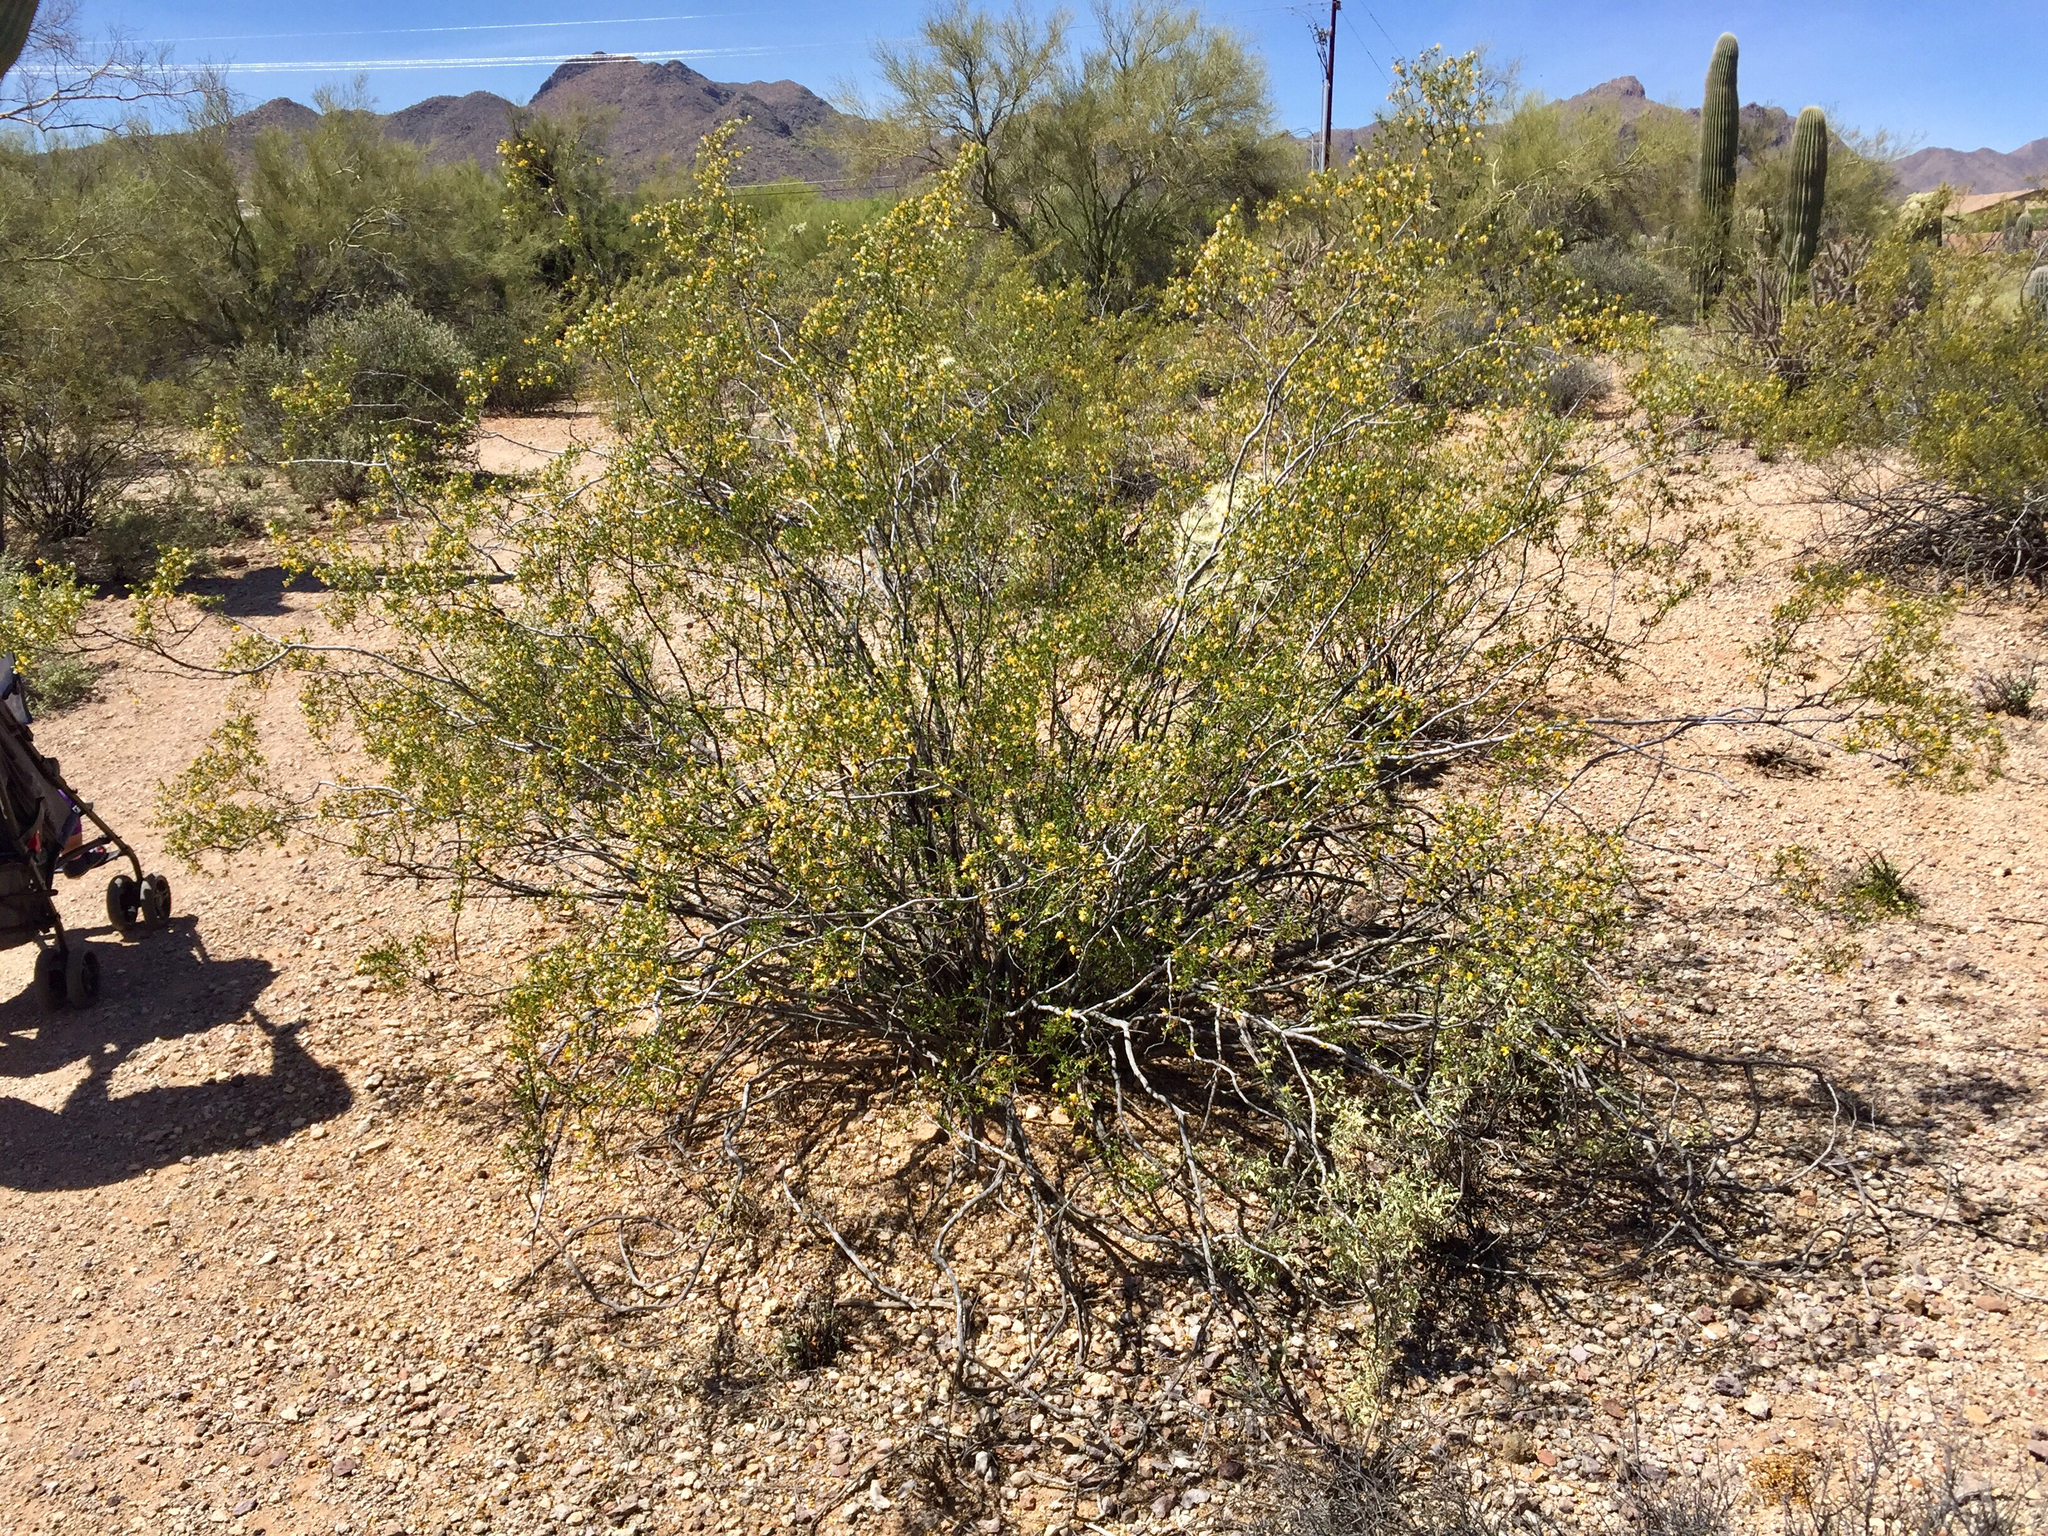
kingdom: Plantae
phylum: Tracheophyta
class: Magnoliopsida
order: Zygophyllales
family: Zygophyllaceae
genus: Larrea
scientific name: Larrea tridentata
